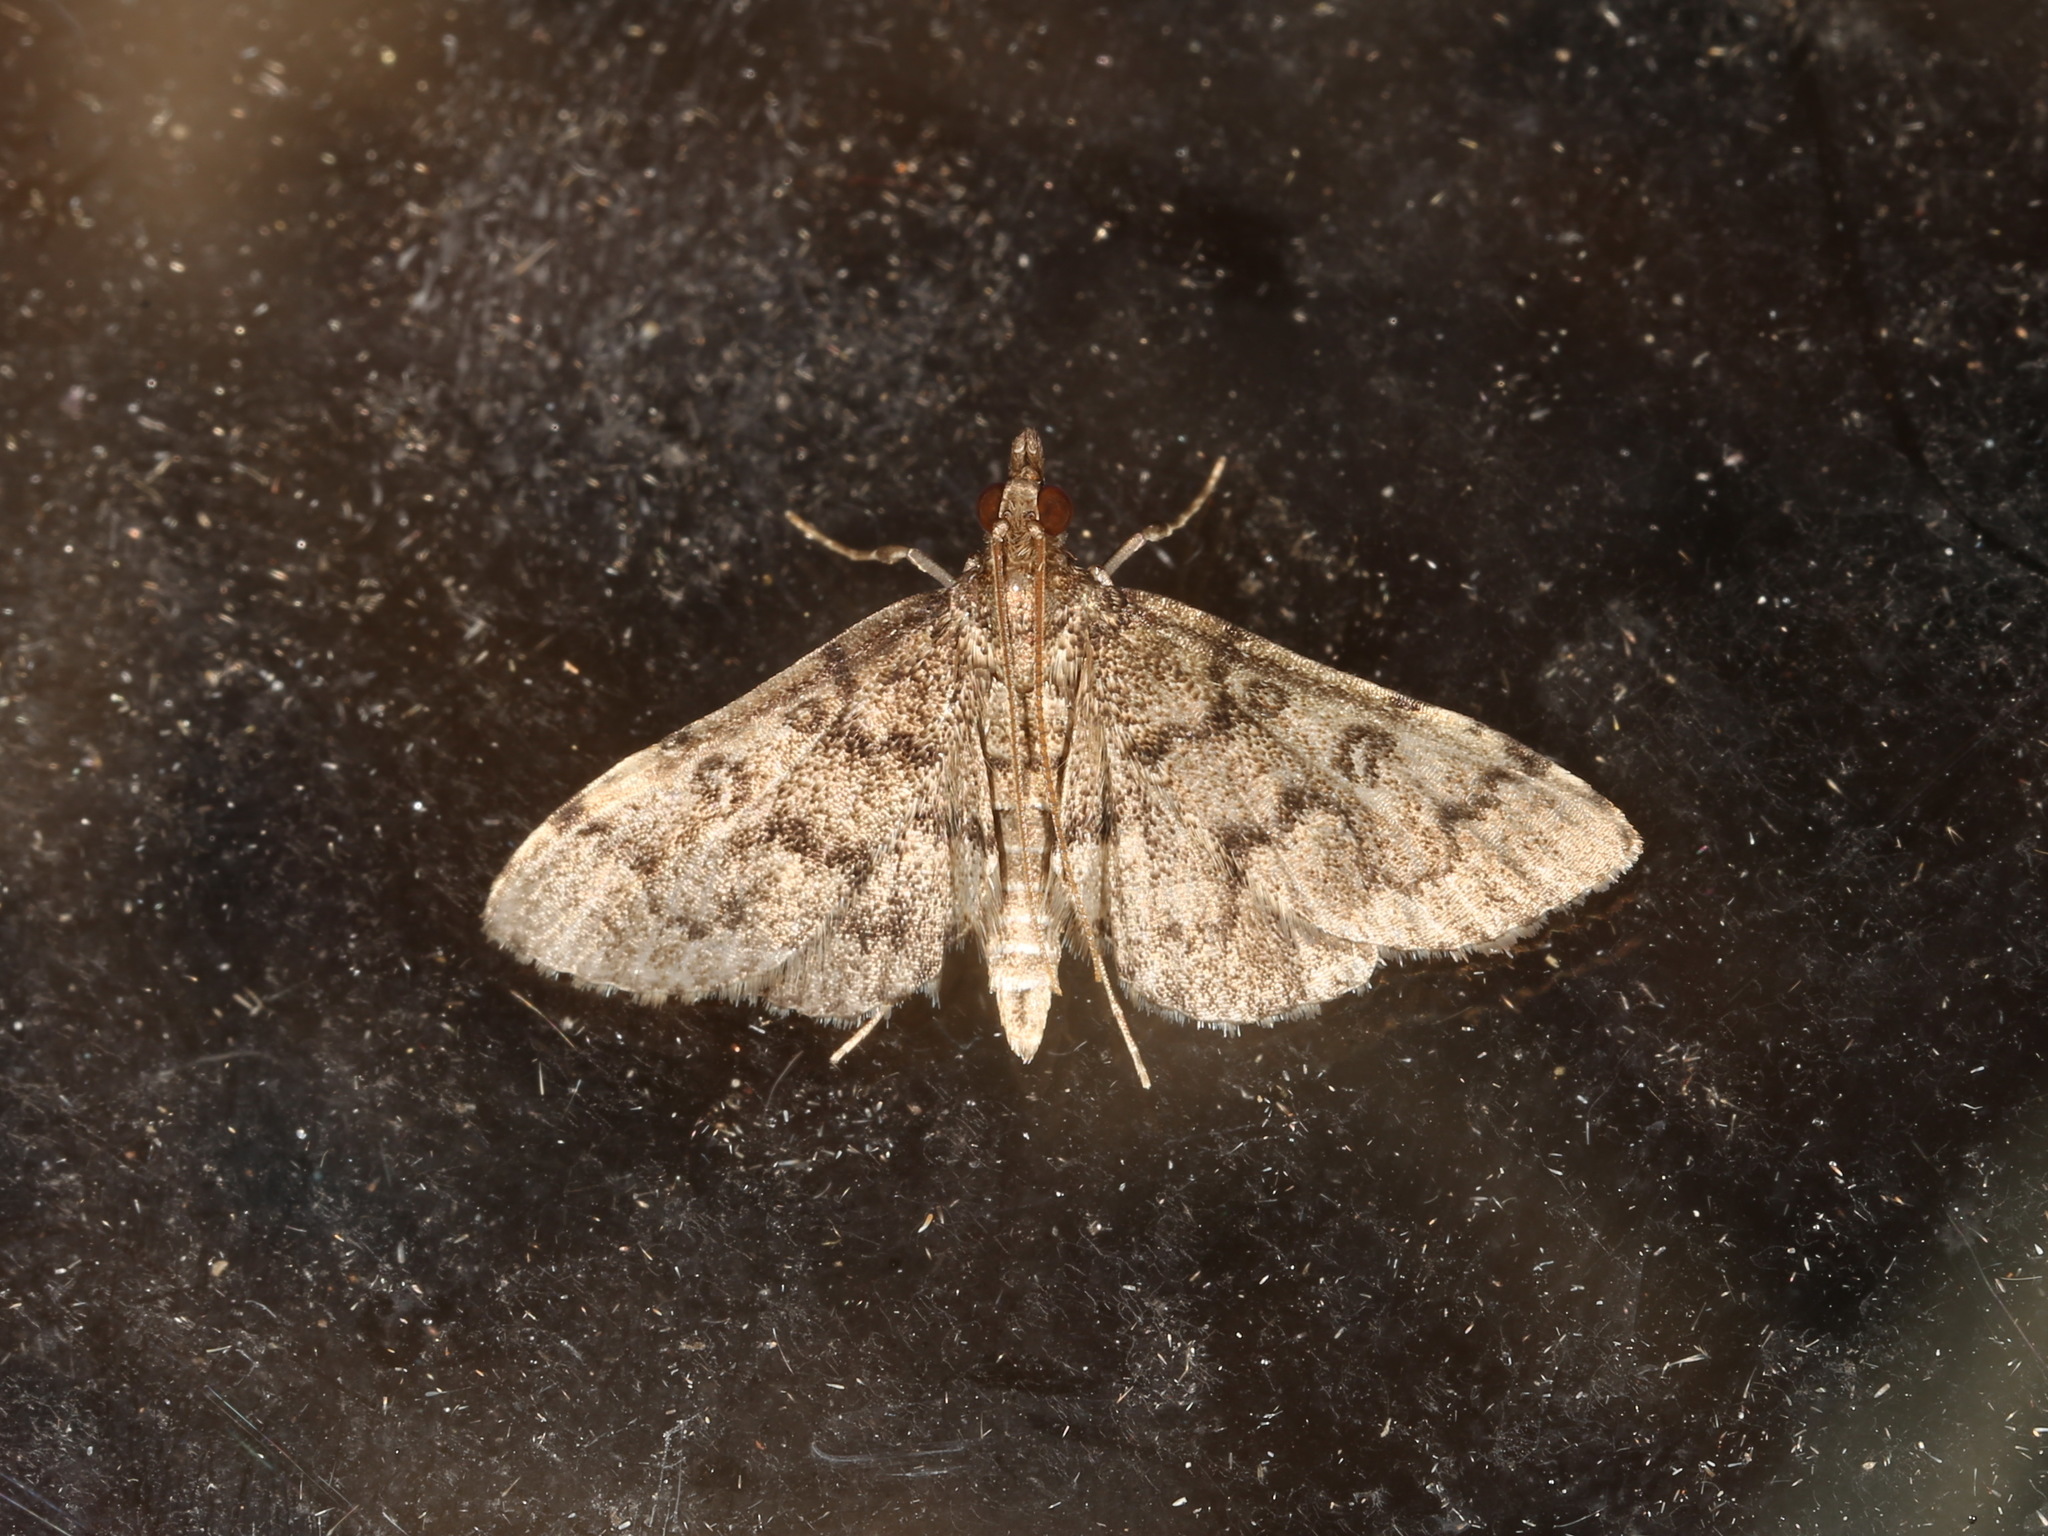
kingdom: Animalia
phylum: Arthropoda
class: Insecta
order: Lepidoptera
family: Crambidae
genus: Metasia
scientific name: Metasia liophaea
